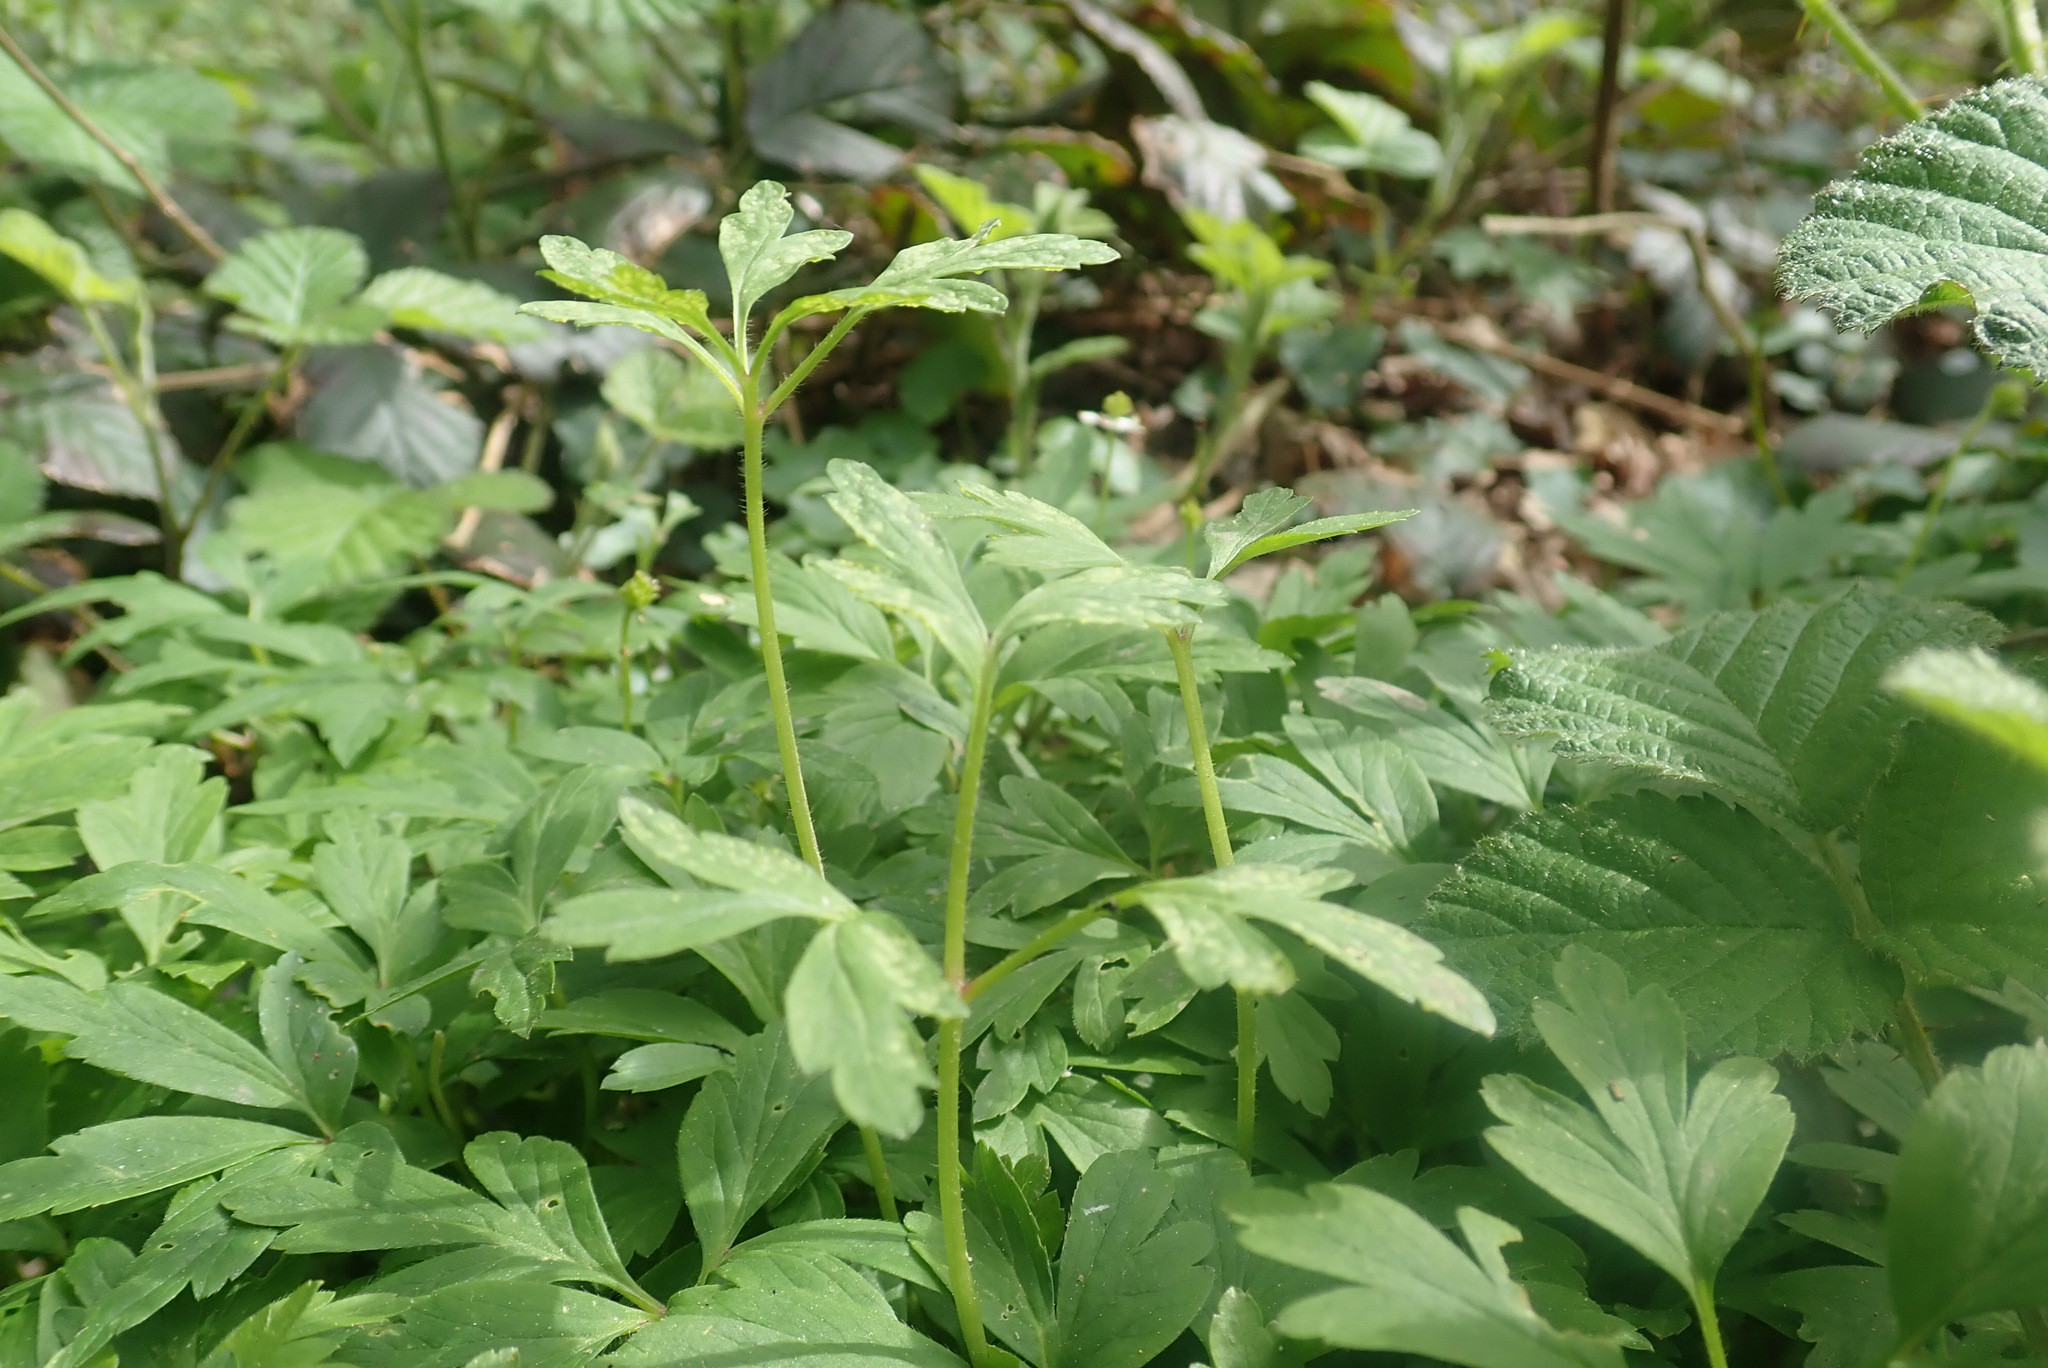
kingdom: Fungi
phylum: Basidiomycota
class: Pucciniomycetes
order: Pucciniales
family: Ochropsoraceae
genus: Ochropsora
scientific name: Ochropsora ariae
